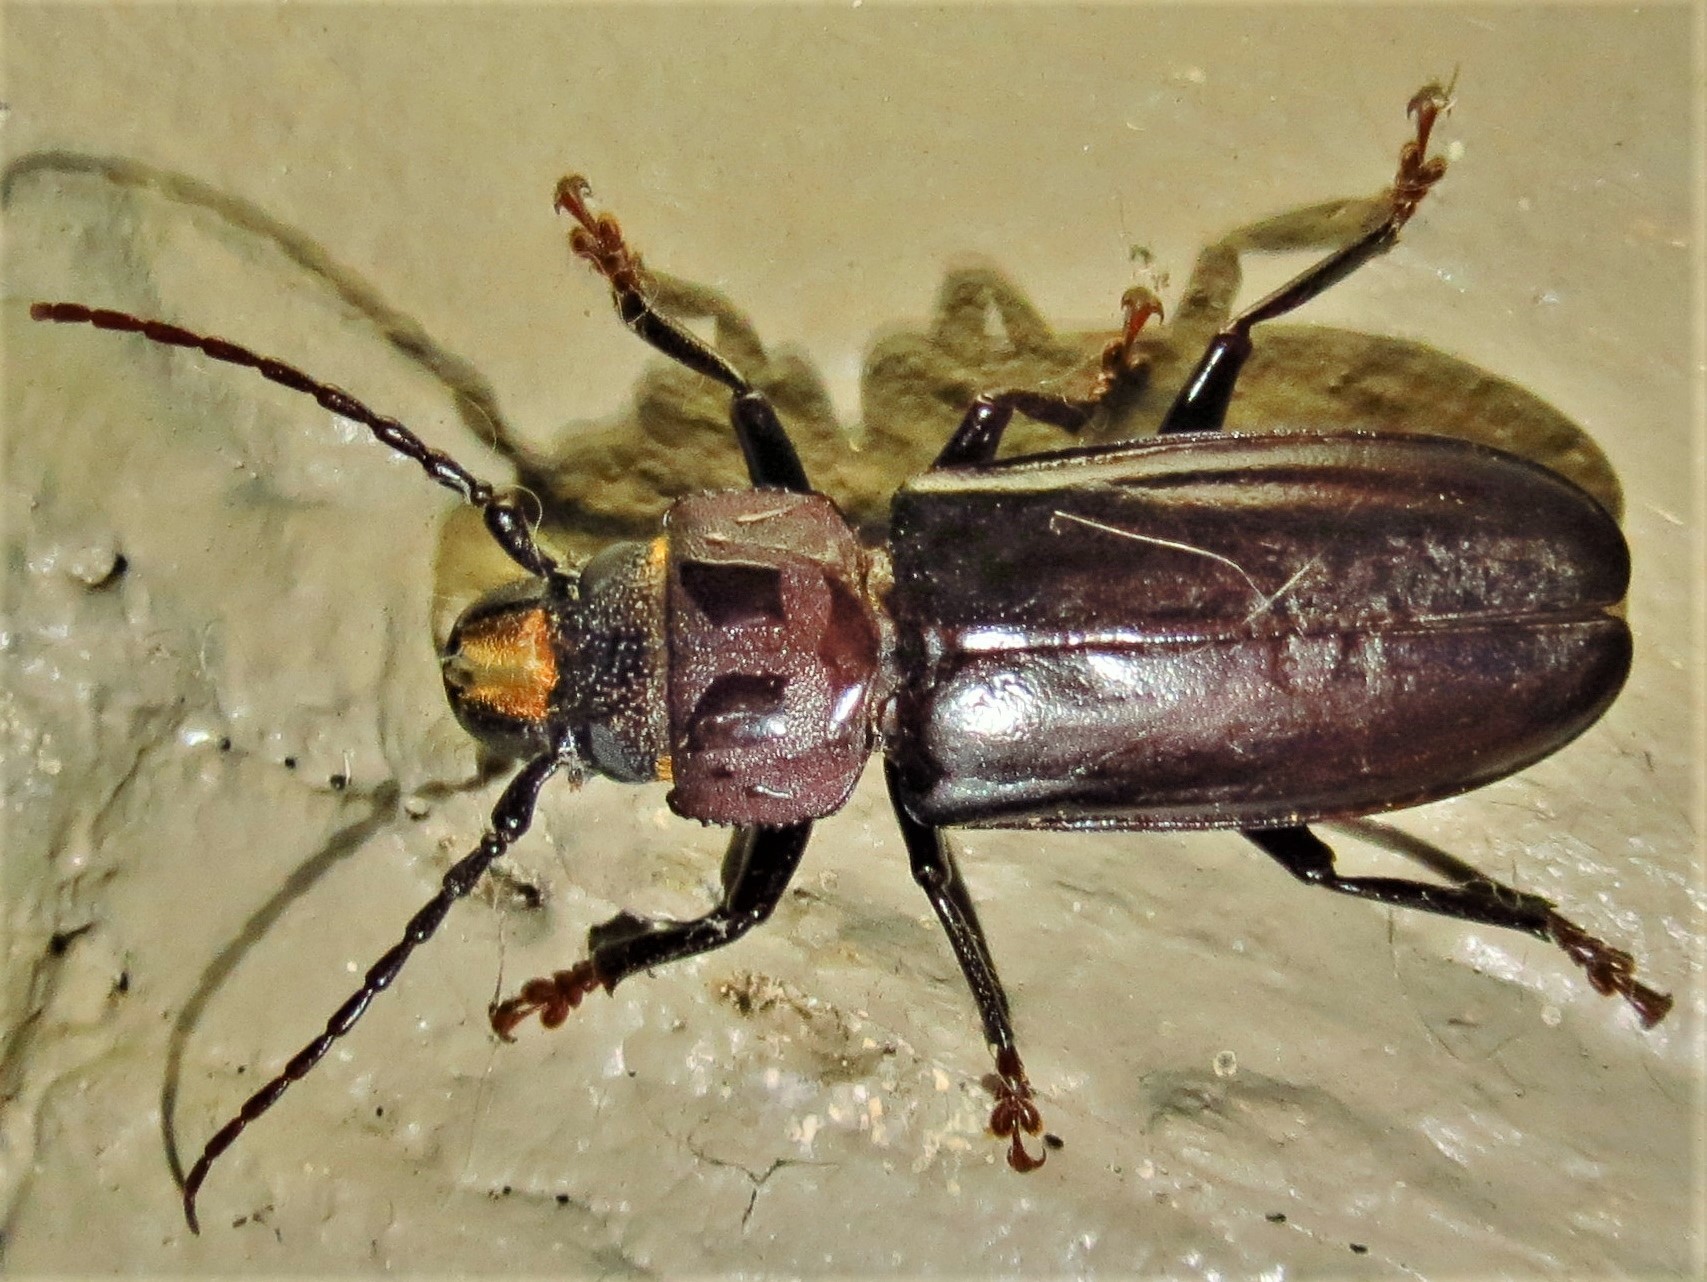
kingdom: Animalia
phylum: Arthropoda
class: Insecta
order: Coleoptera
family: Cerambycidae
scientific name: Cerambycidae
